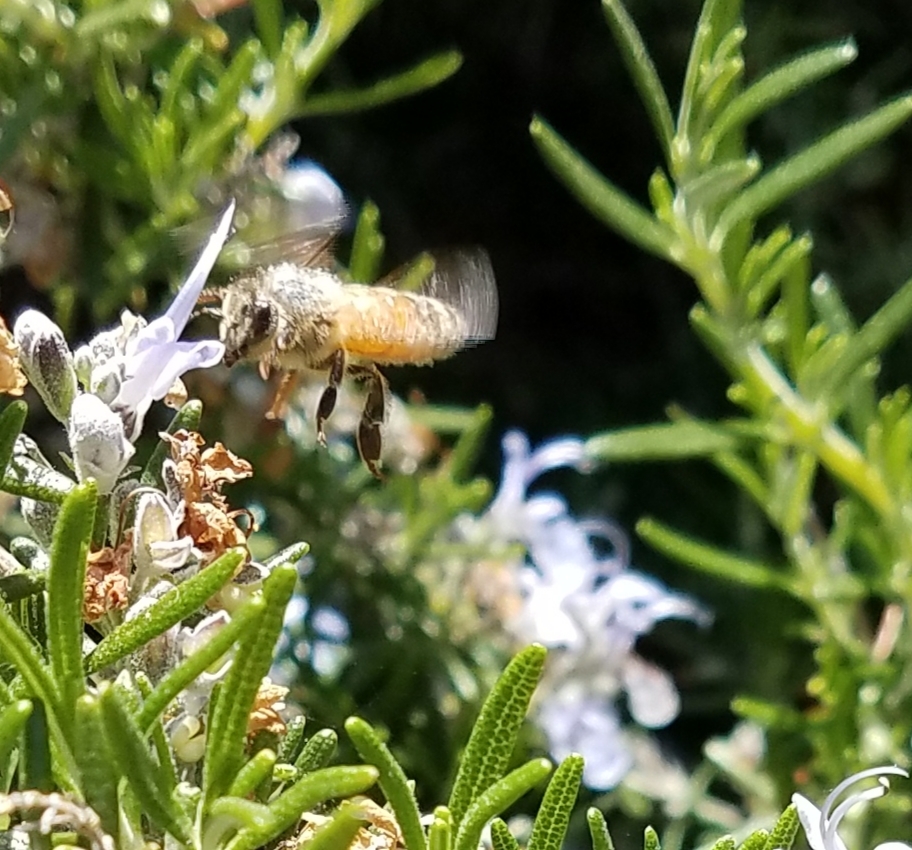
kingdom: Animalia
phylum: Arthropoda
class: Insecta
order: Hymenoptera
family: Apidae
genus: Apis
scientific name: Apis mellifera
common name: Honey bee
